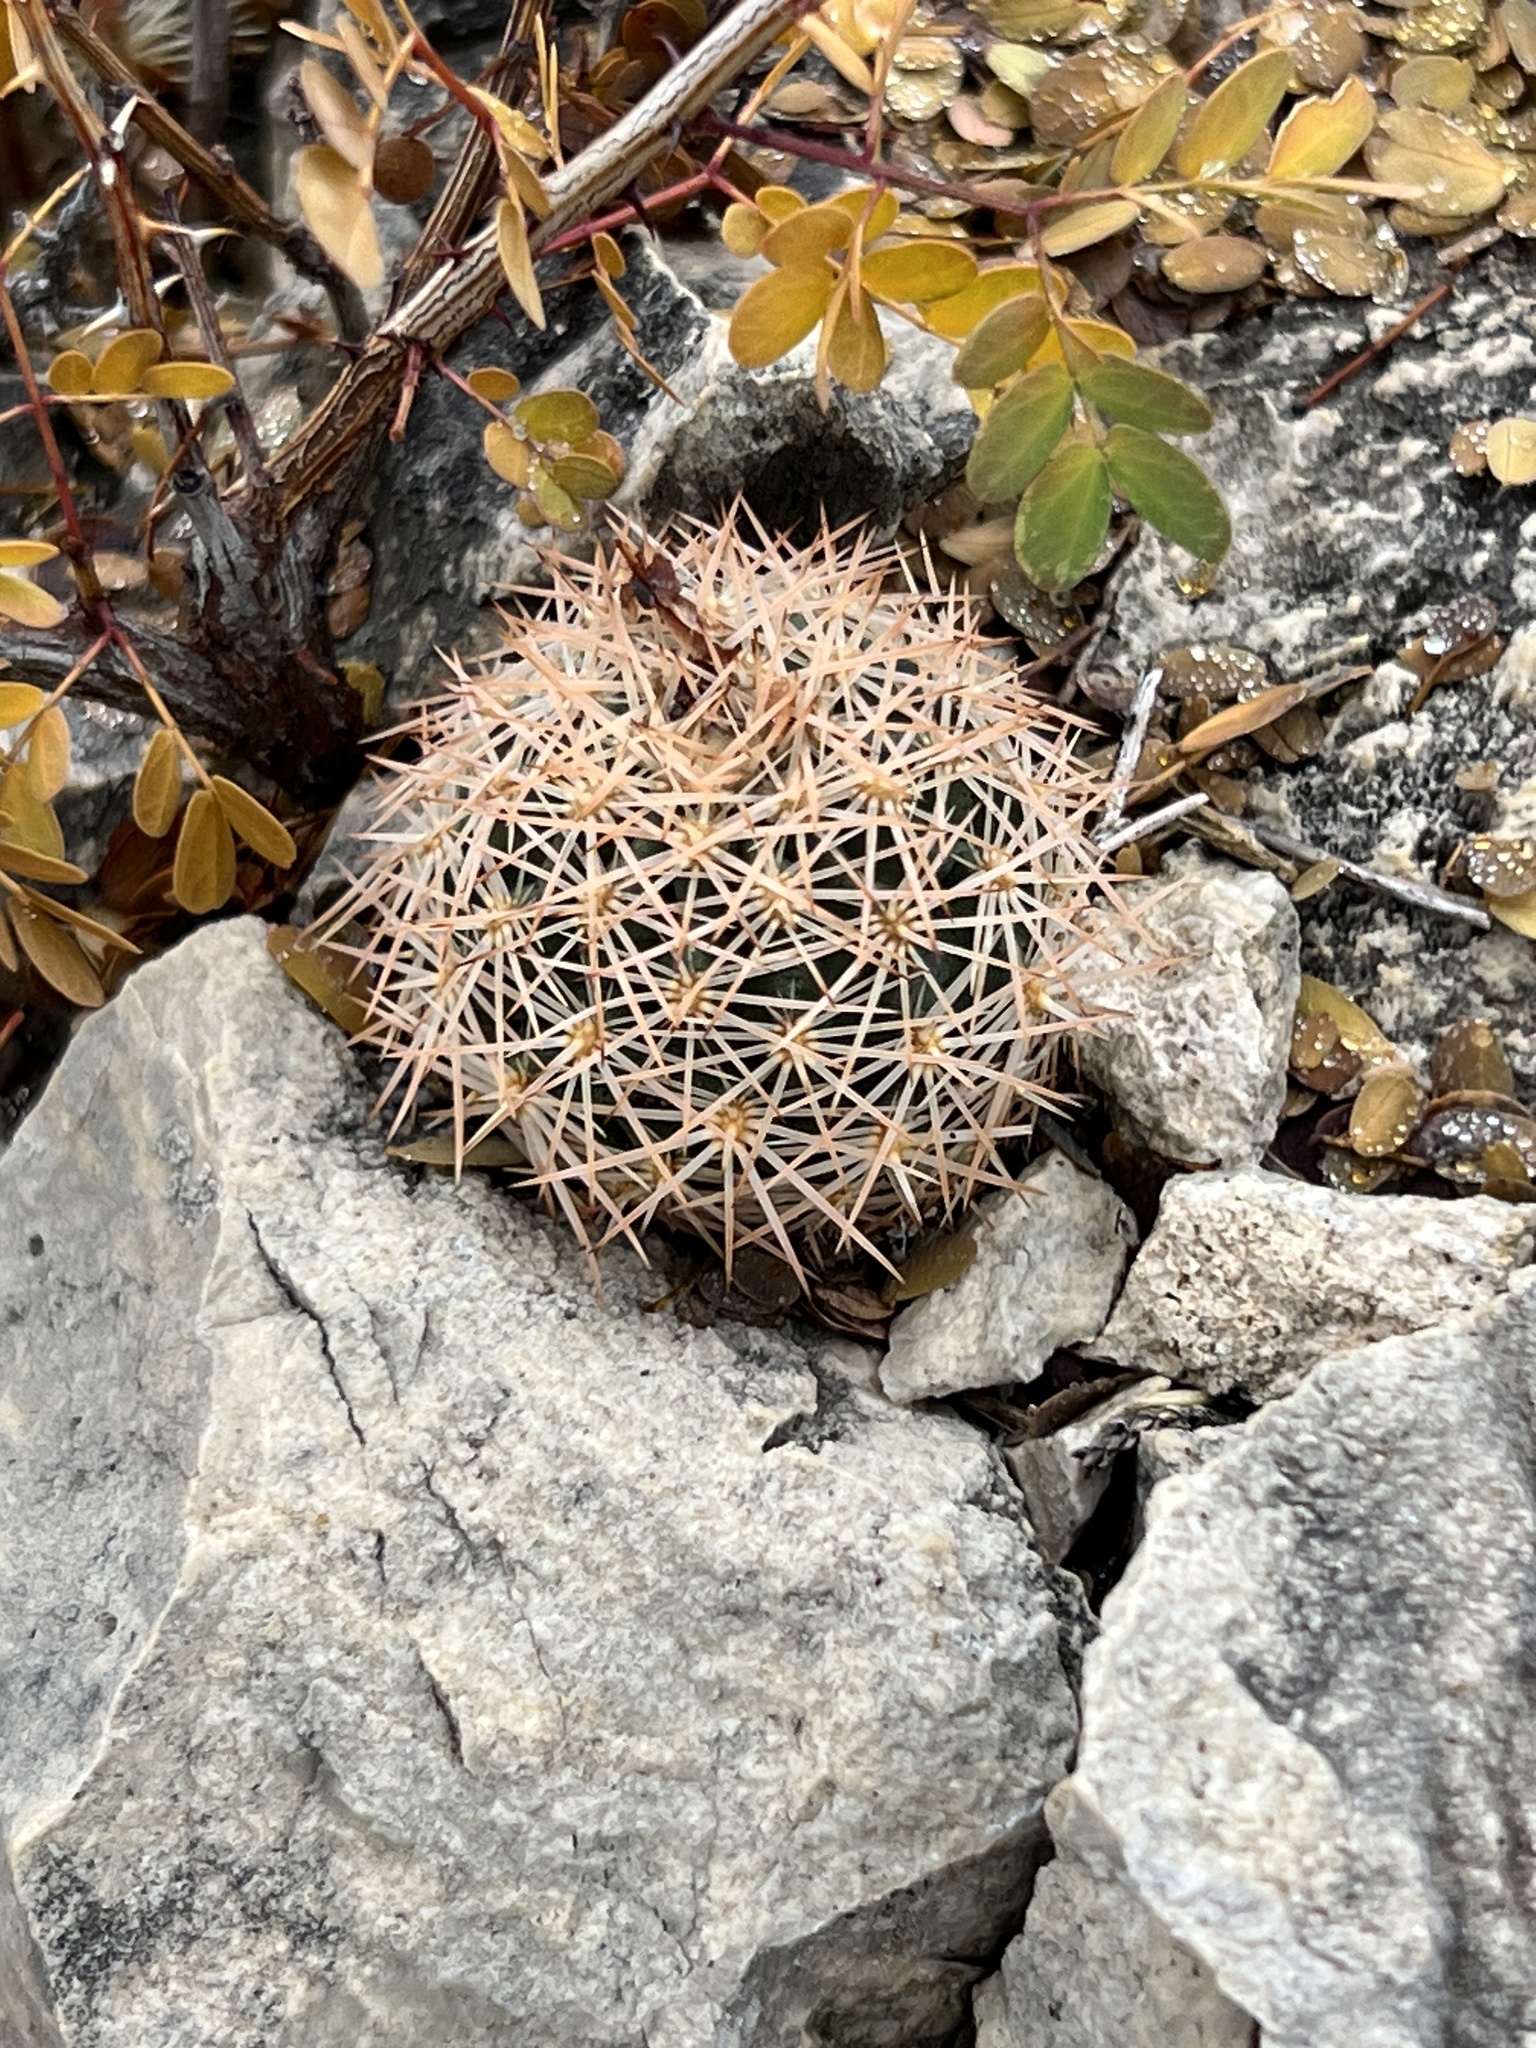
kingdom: Plantae
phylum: Tracheophyta
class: Magnoliopsida
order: Caryophyllales
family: Cactaceae
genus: Coryphantha
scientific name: Coryphantha echinus
